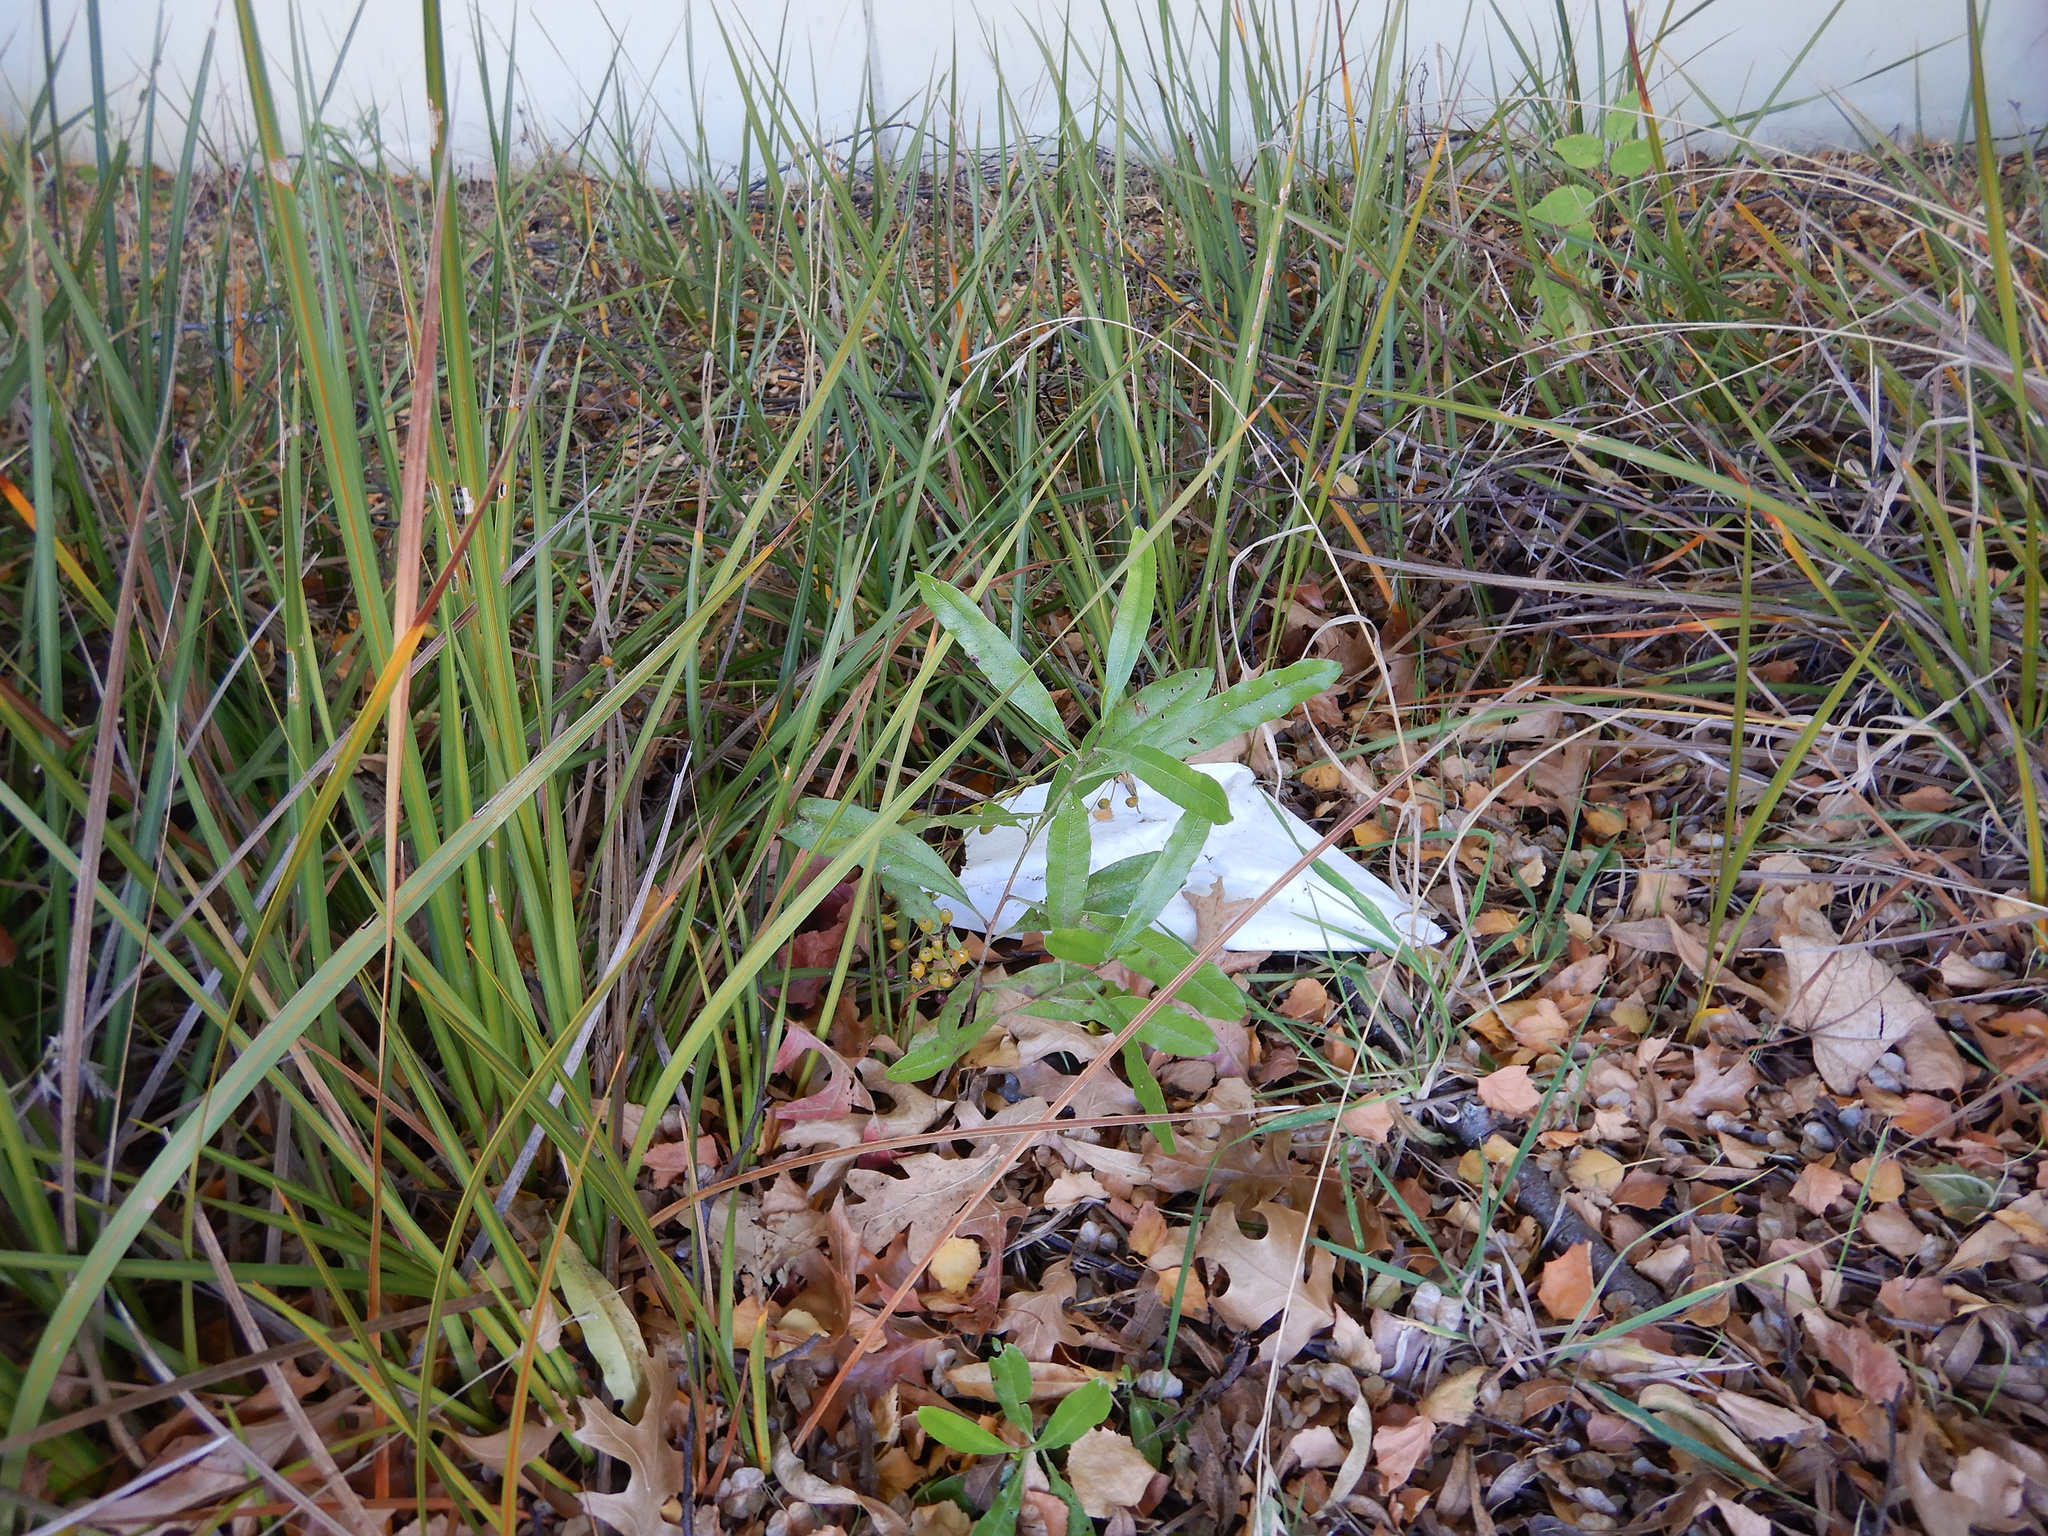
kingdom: Plantae
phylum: Tracheophyta
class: Magnoliopsida
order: Sapindales
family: Sapindaceae
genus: Dodonaea
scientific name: Dodonaea viscosa
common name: Hopbush
